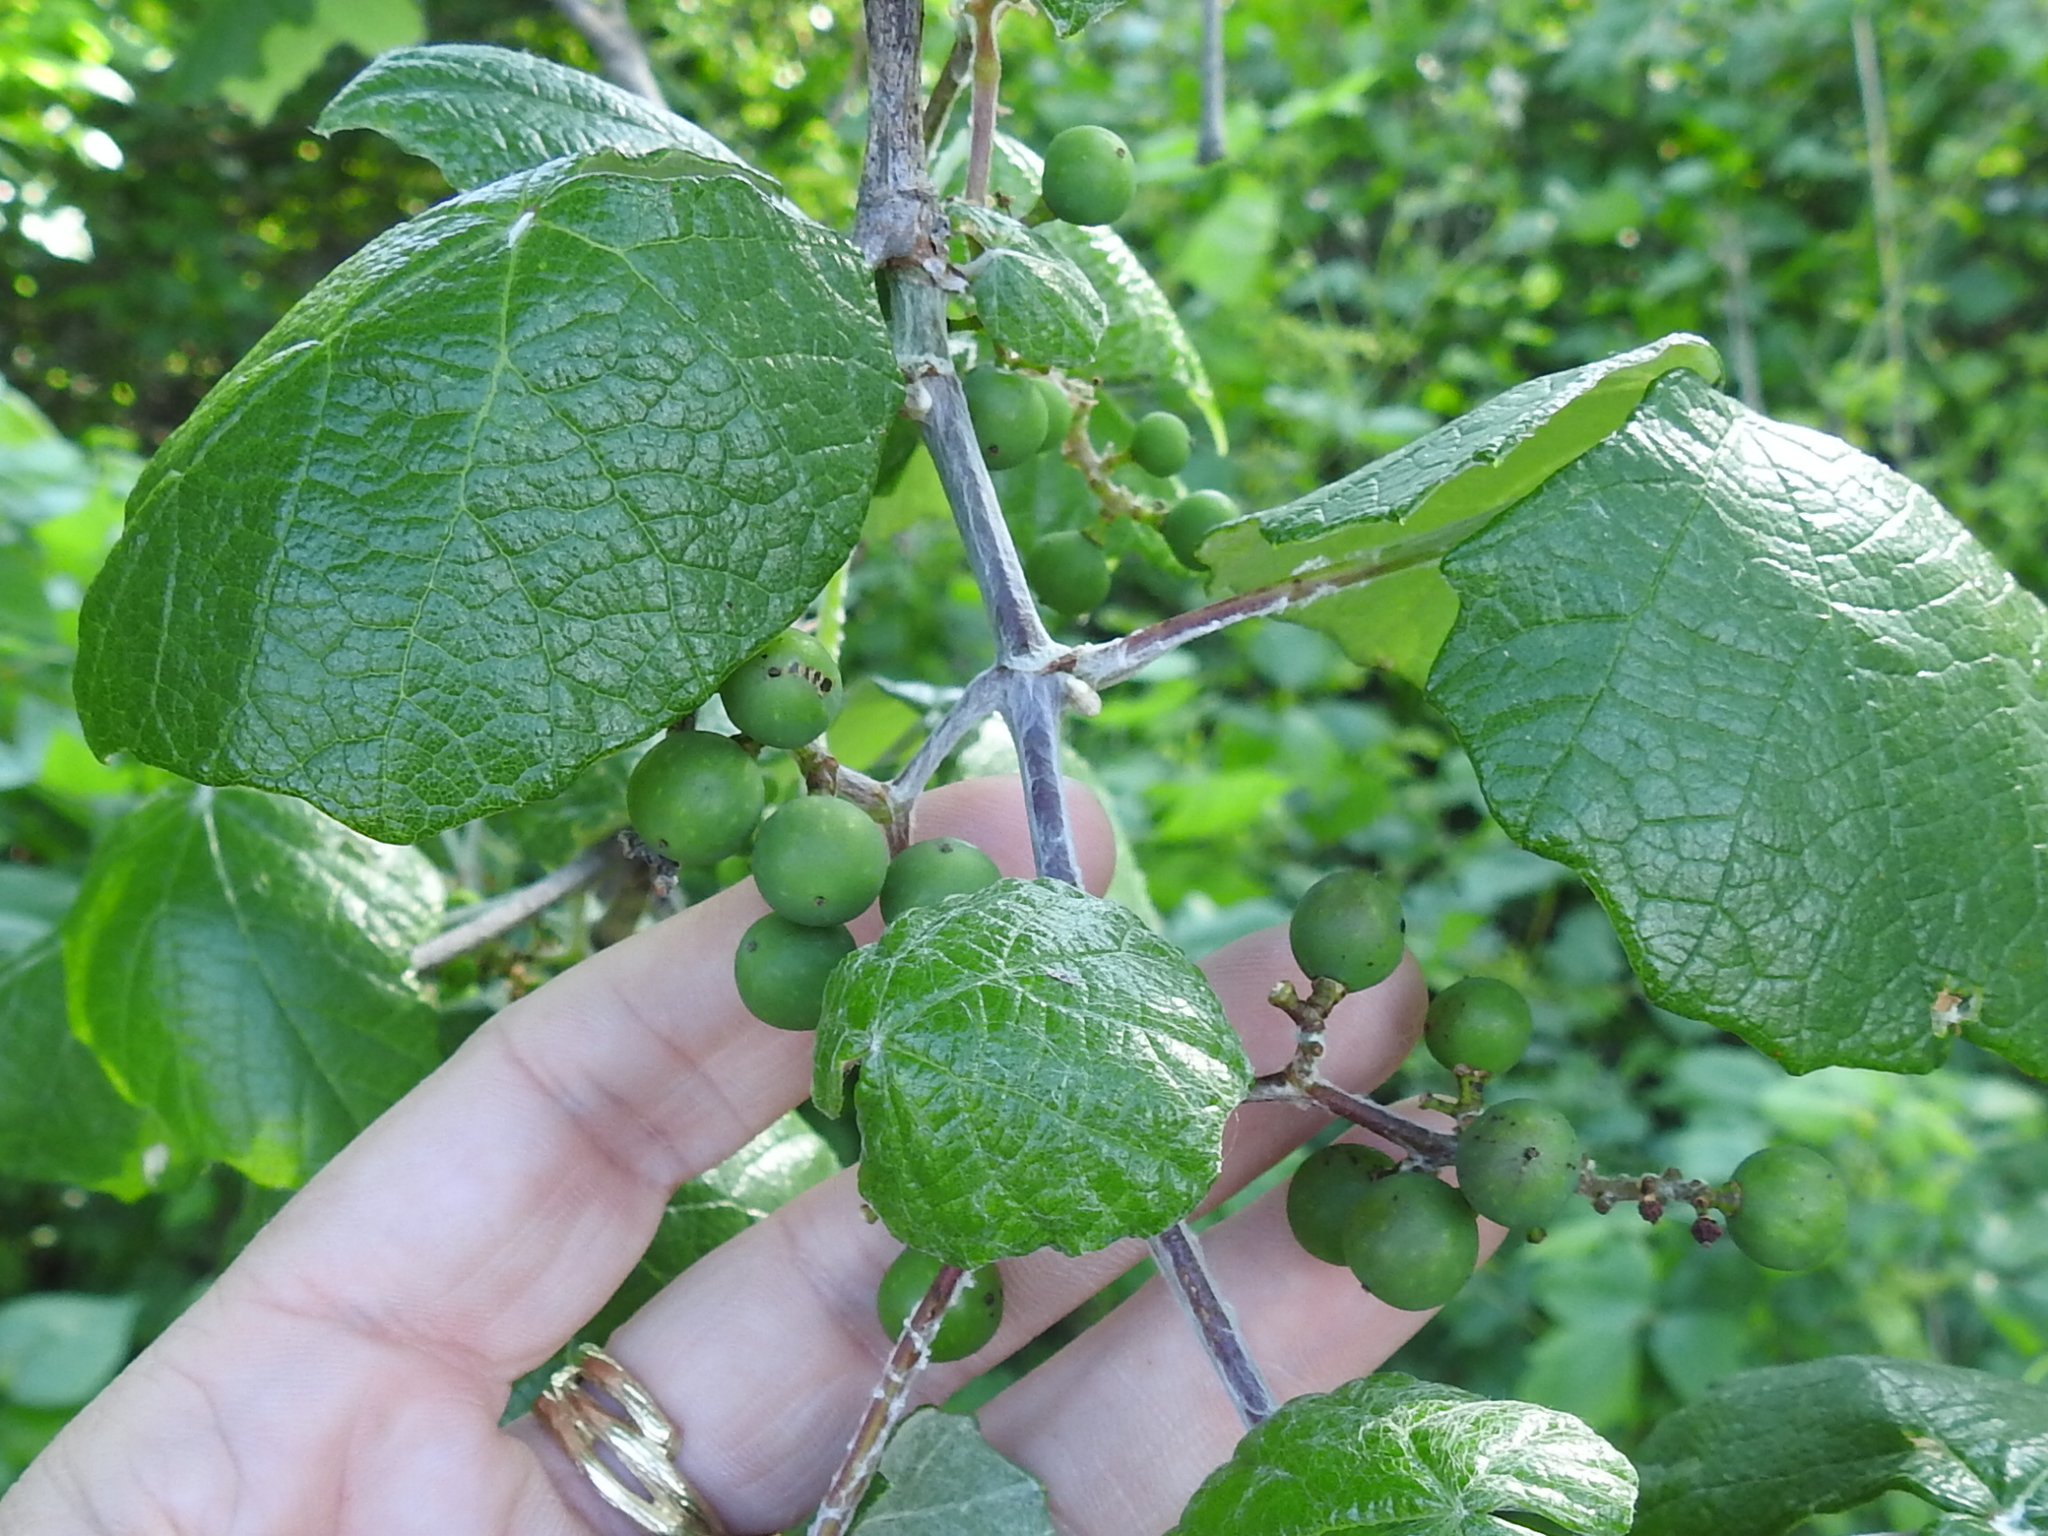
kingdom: Plantae
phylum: Tracheophyta
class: Magnoliopsida
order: Vitales
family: Vitaceae
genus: Vitis
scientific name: Vitis mustangensis
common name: Mustang grape
